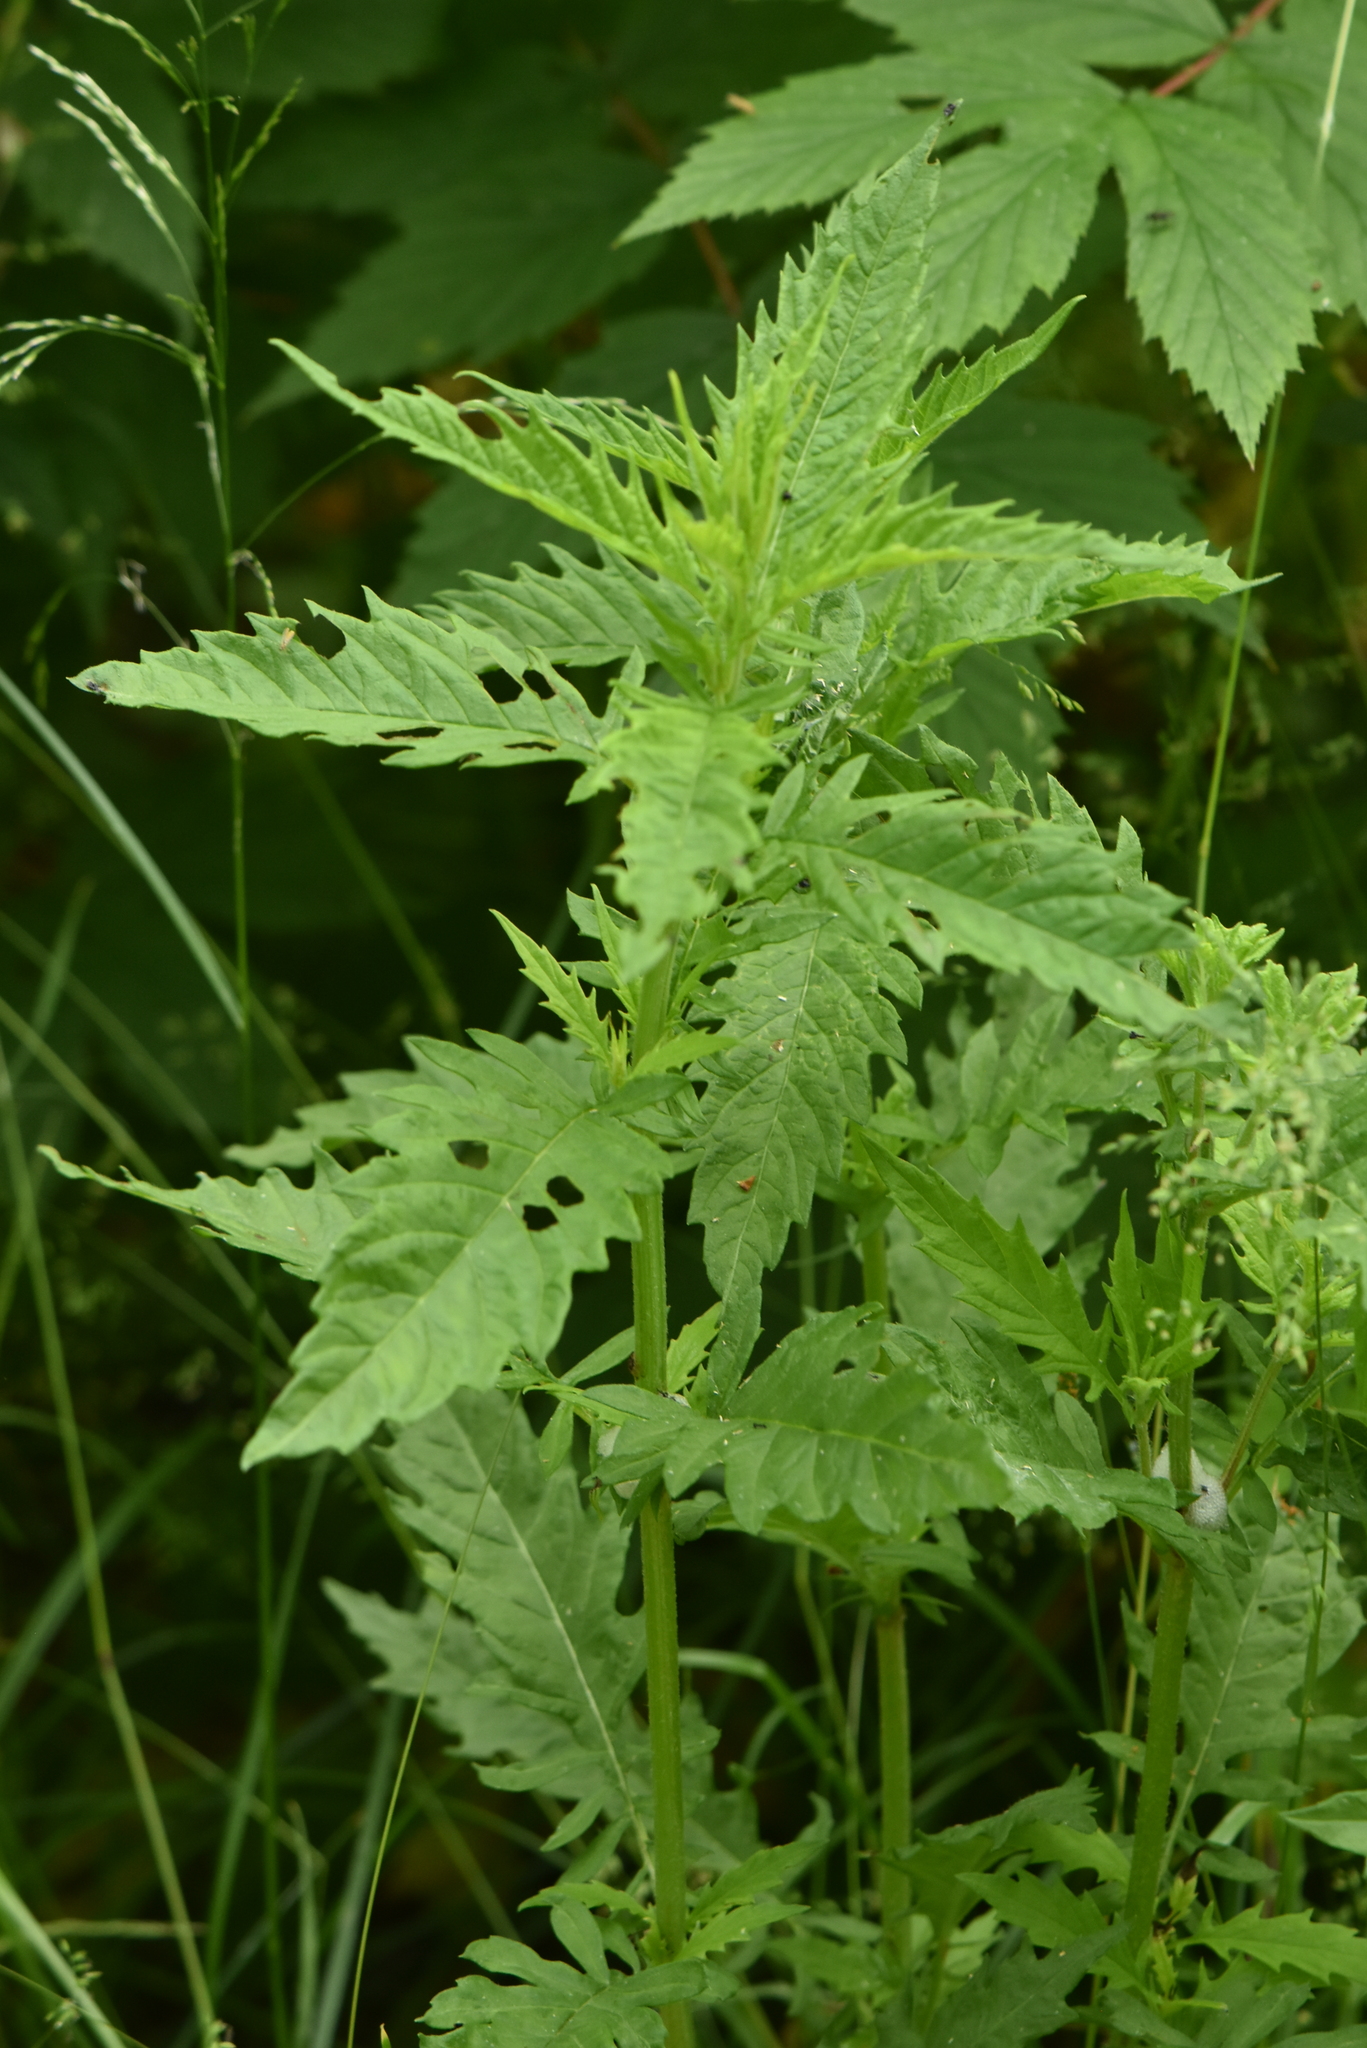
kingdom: Plantae
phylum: Tracheophyta
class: Magnoliopsida
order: Lamiales
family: Lamiaceae
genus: Lycopus
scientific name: Lycopus europaeus
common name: European bugleweed
